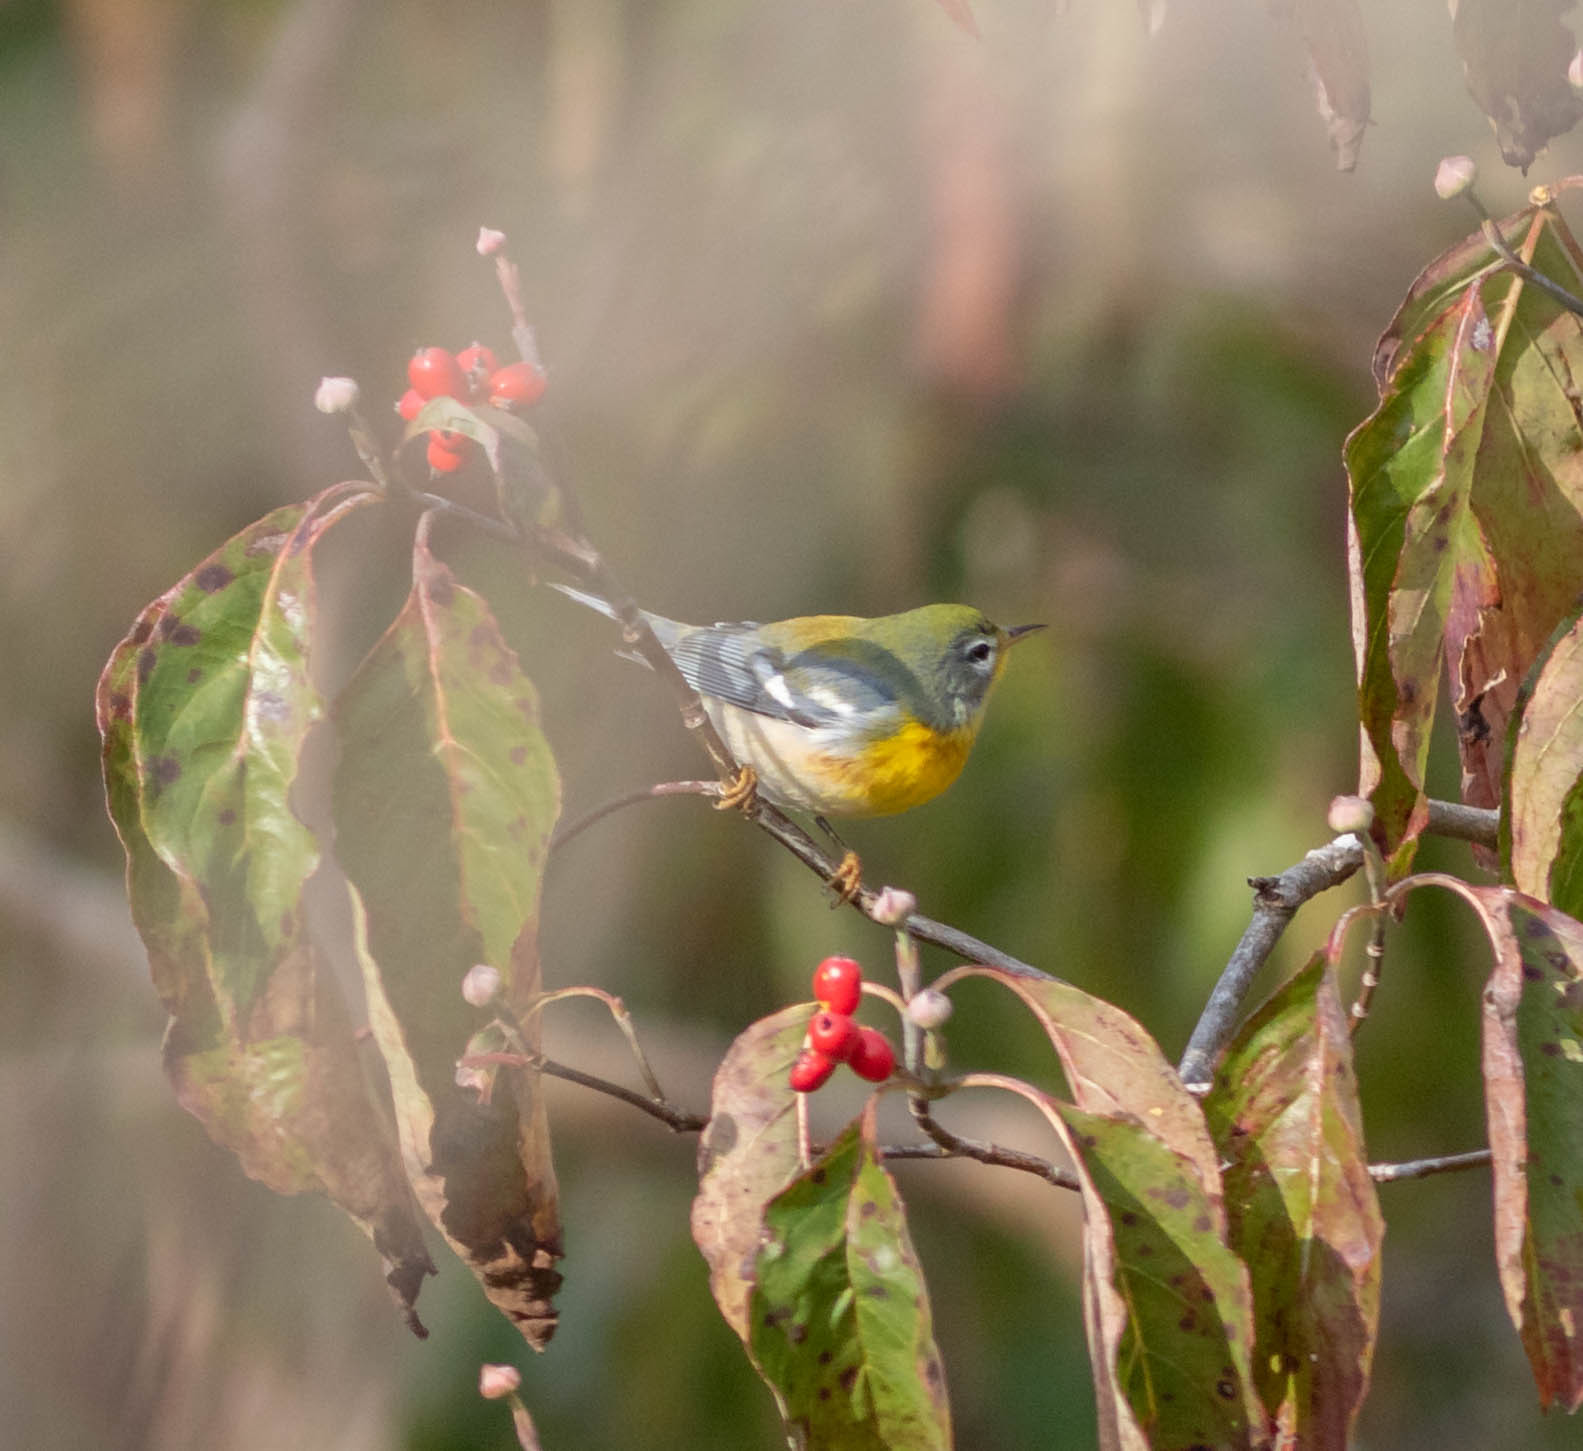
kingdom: Animalia
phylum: Chordata
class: Aves
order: Passeriformes
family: Parulidae
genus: Setophaga
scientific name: Setophaga americana
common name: Northern parula
